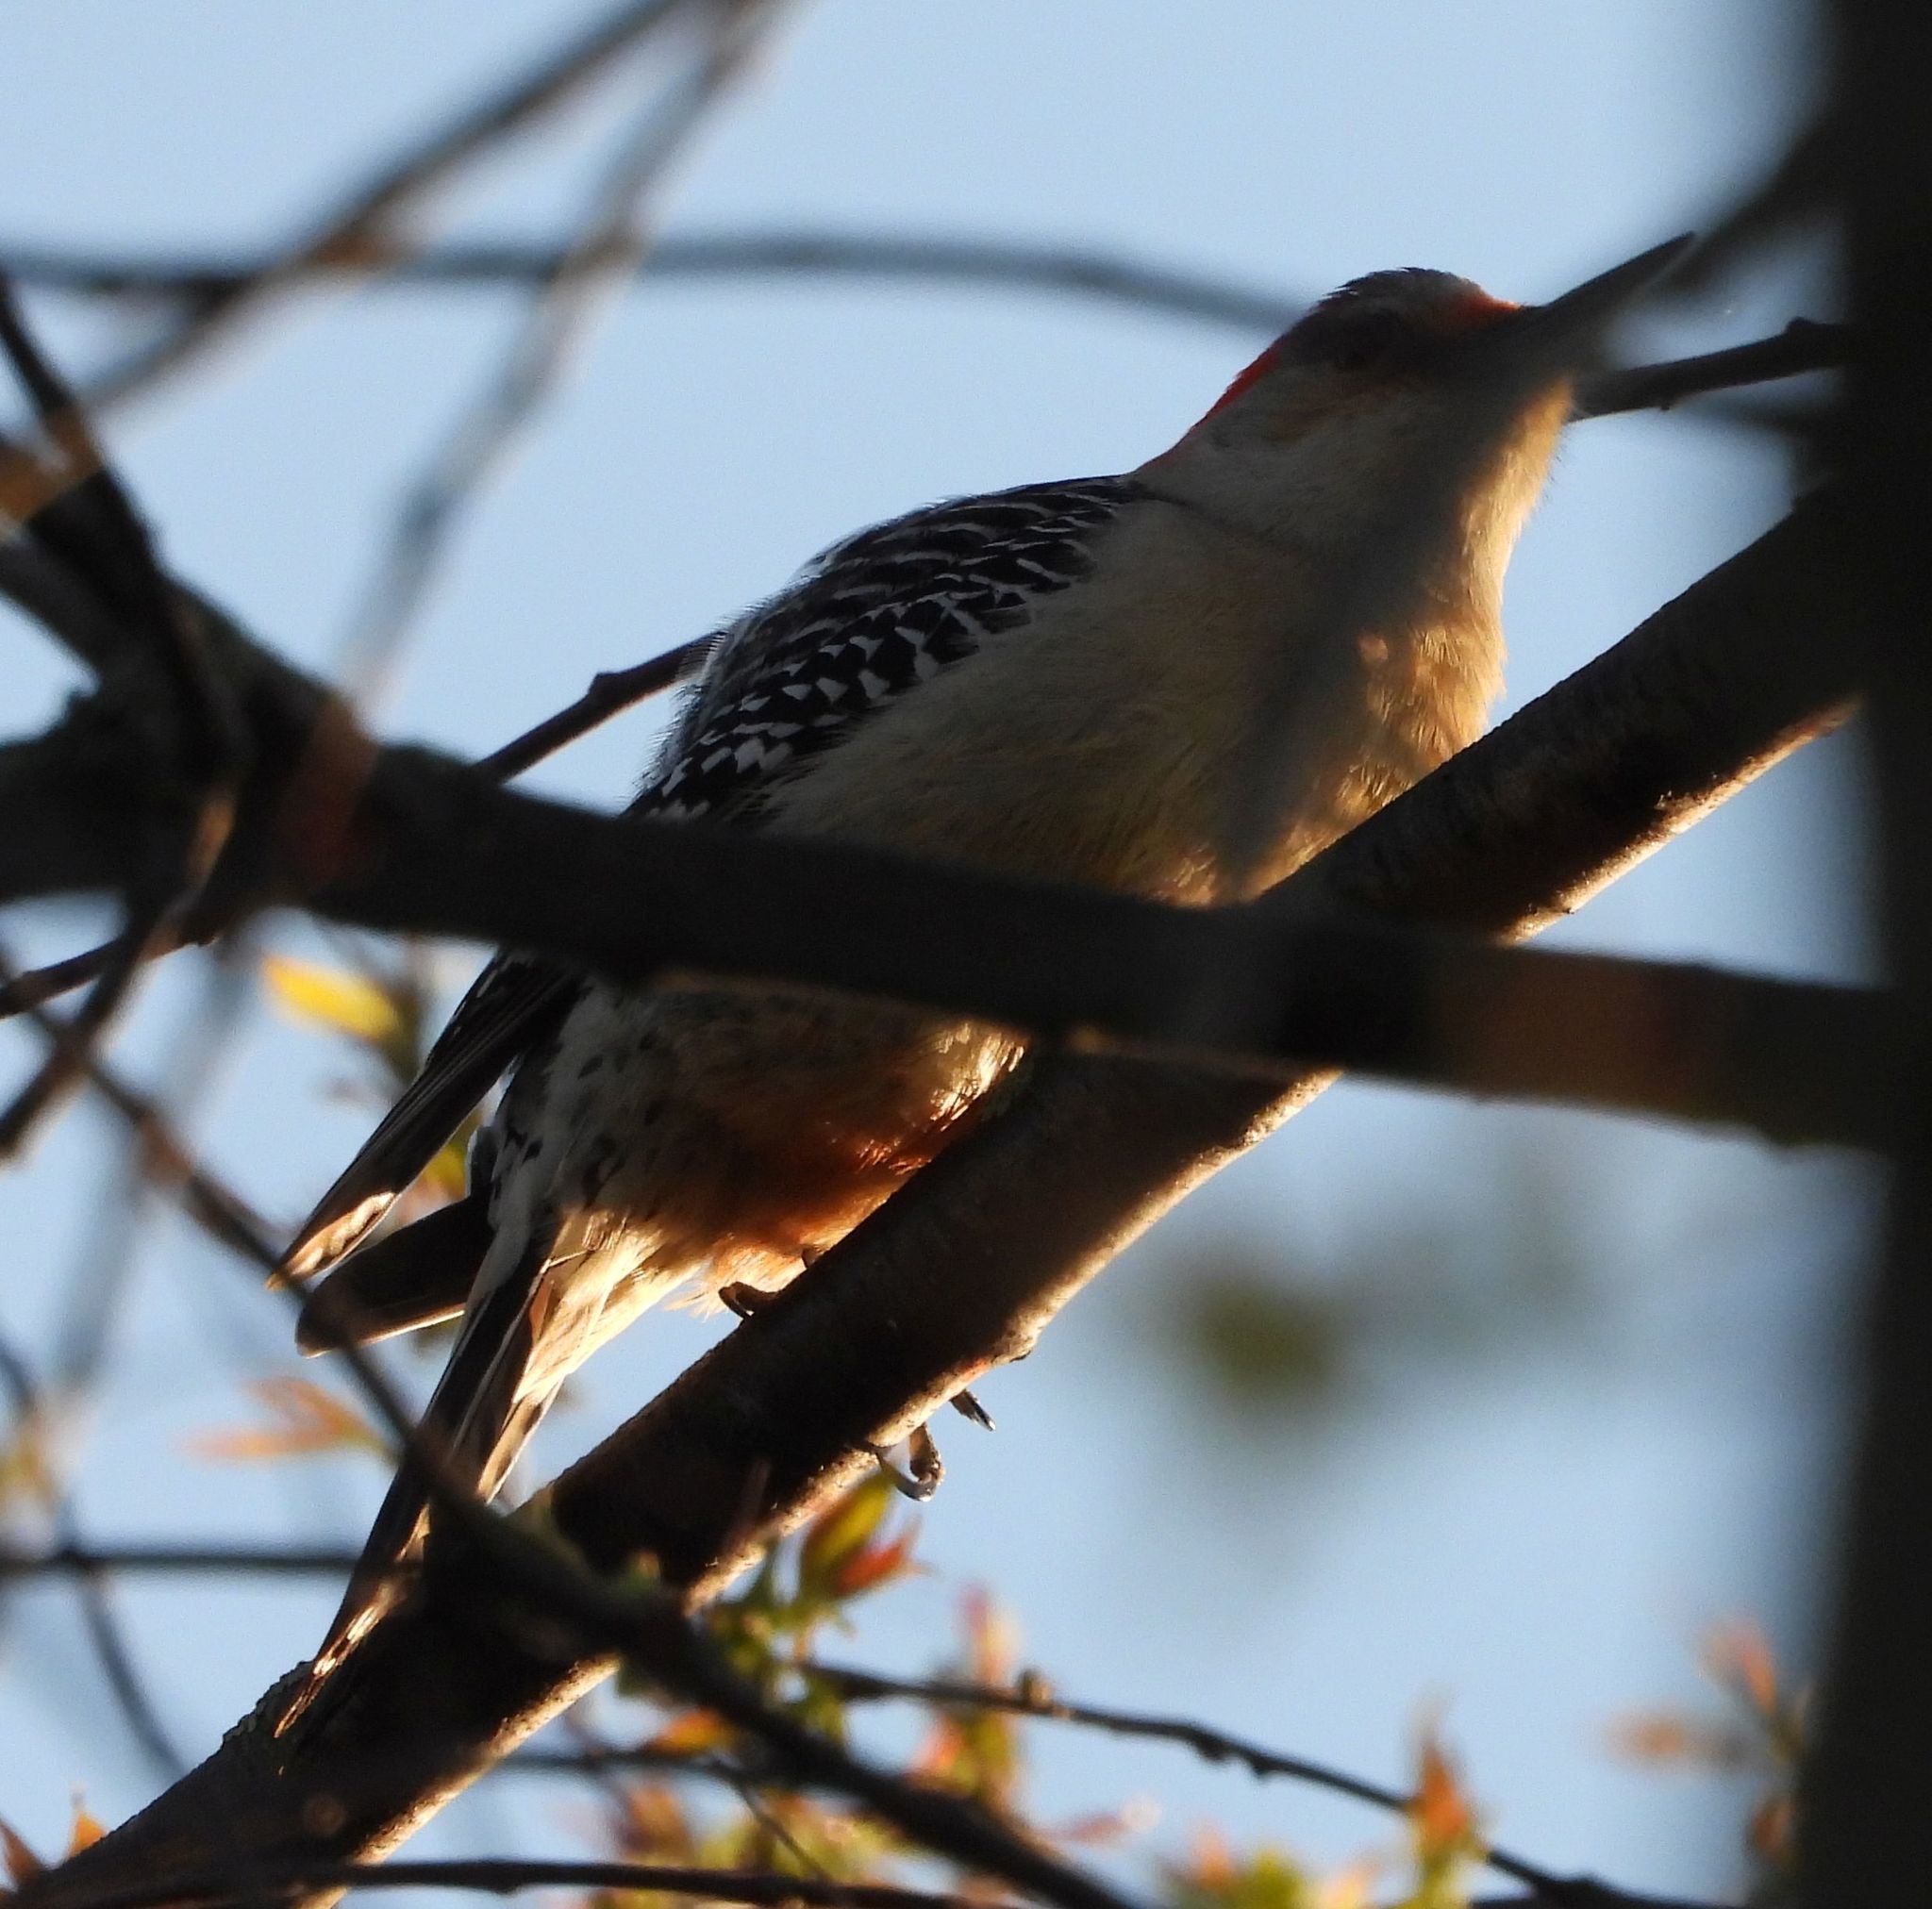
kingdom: Animalia
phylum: Chordata
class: Aves
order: Piciformes
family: Picidae
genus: Melanerpes
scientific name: Melanerpes carolinus
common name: Red-bellied woodpecker
